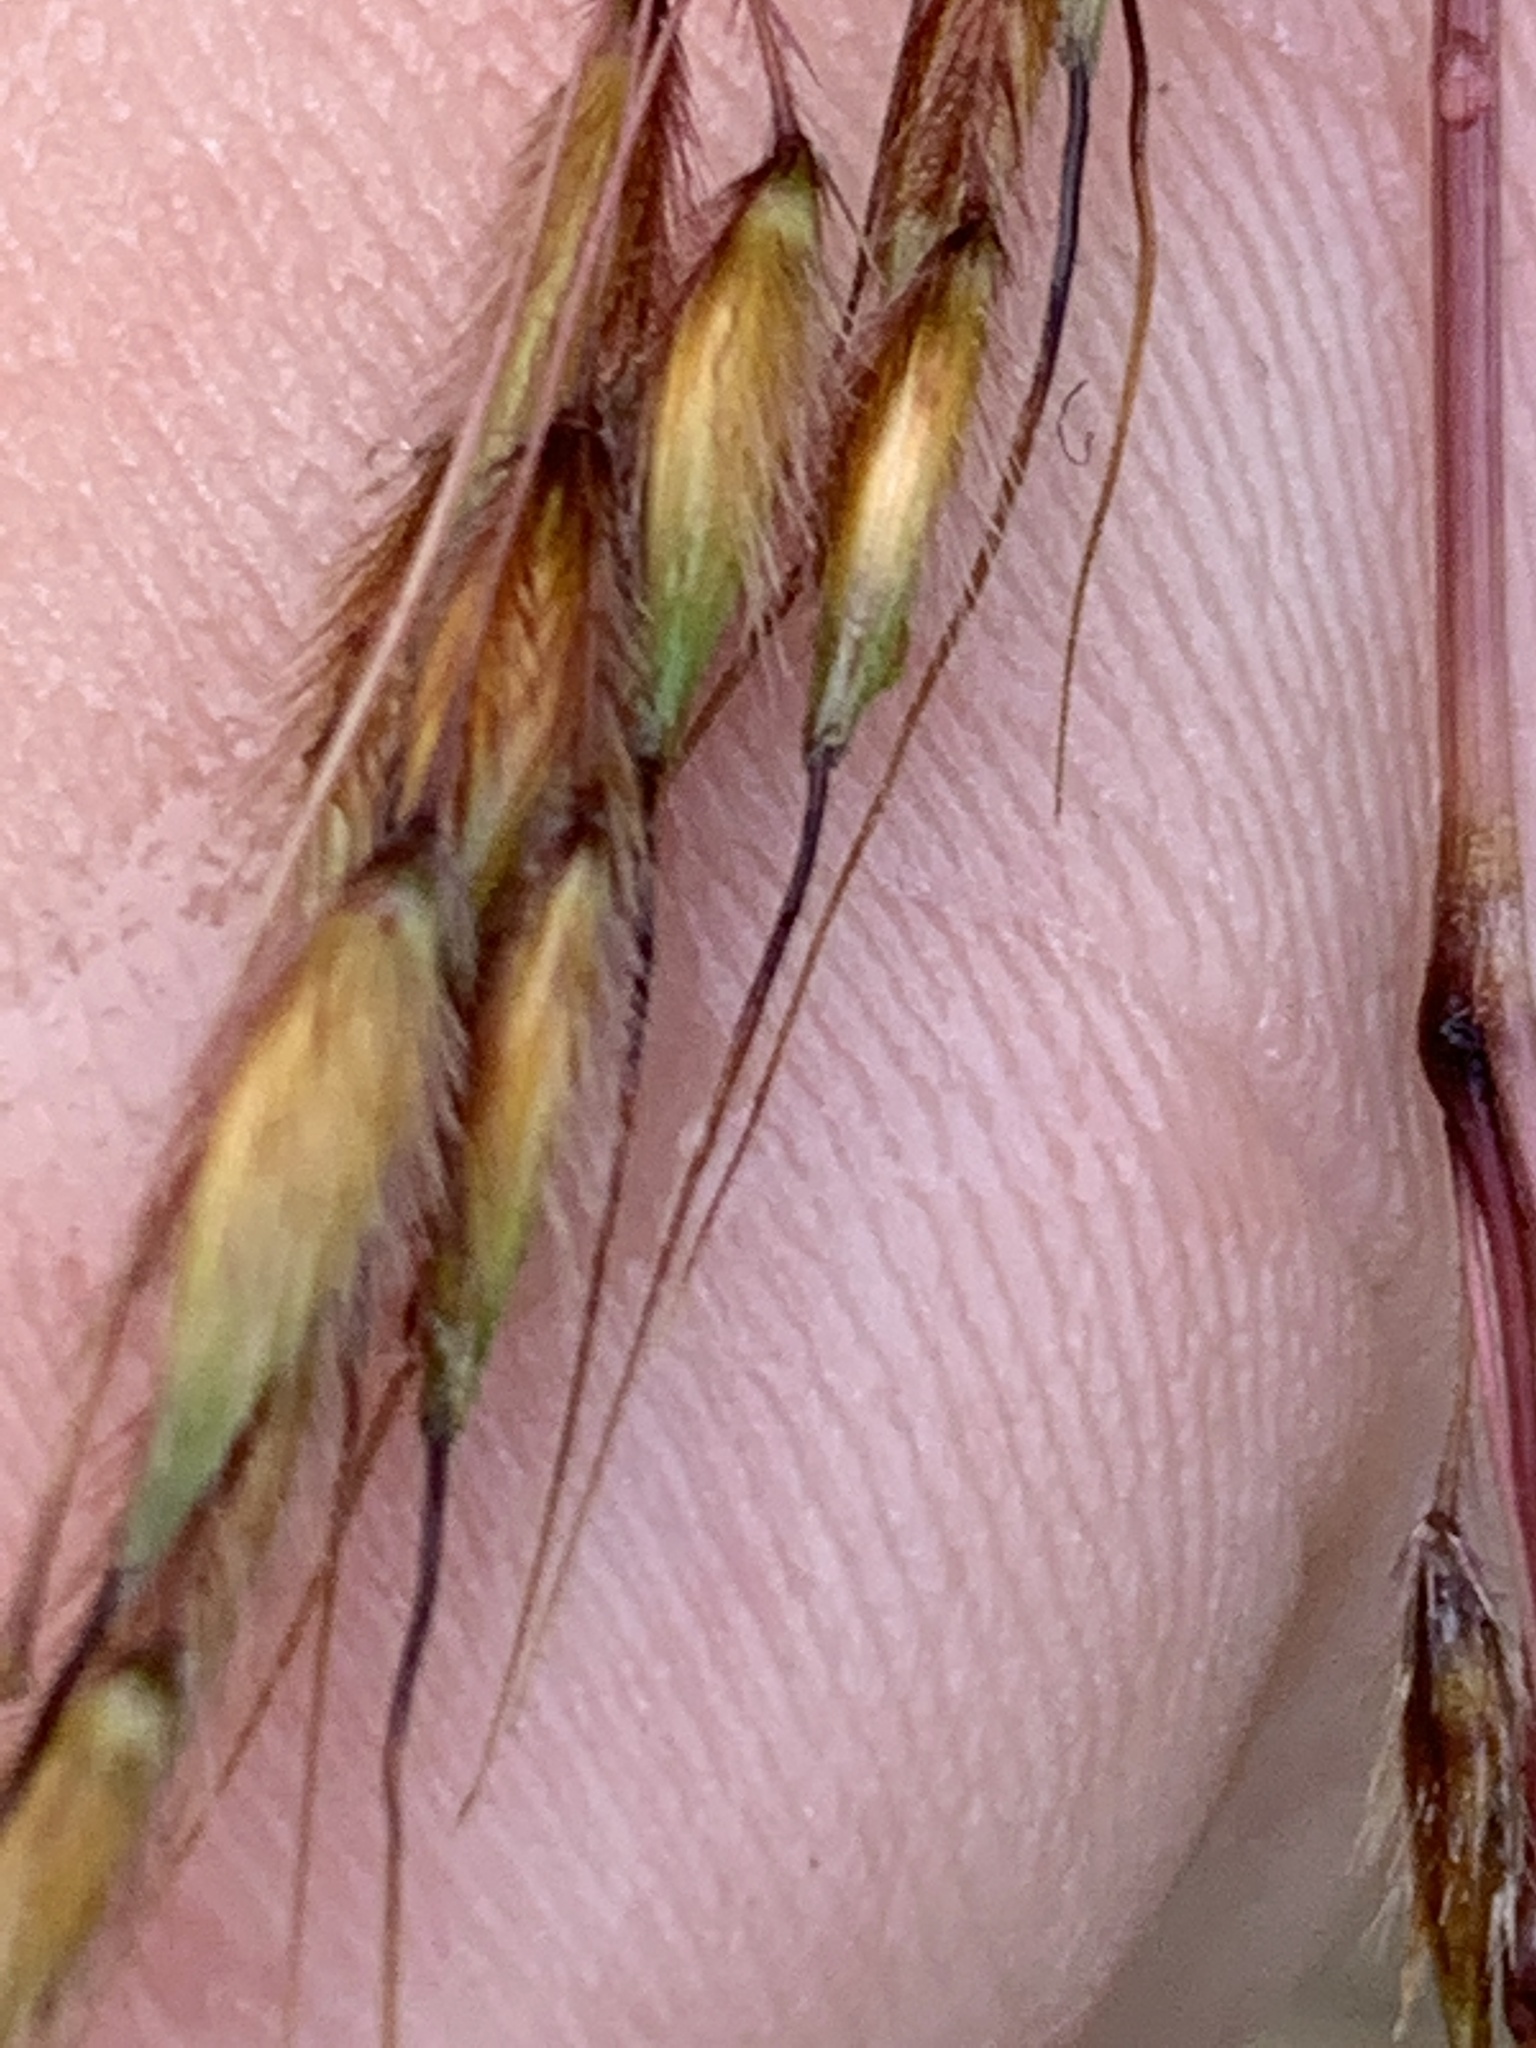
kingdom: Plantae
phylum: Tracheophyta
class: Liliopsida
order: Poales
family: Poaceae
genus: Sorghastrum
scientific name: Sorghastrum nutans
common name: Indian grass
